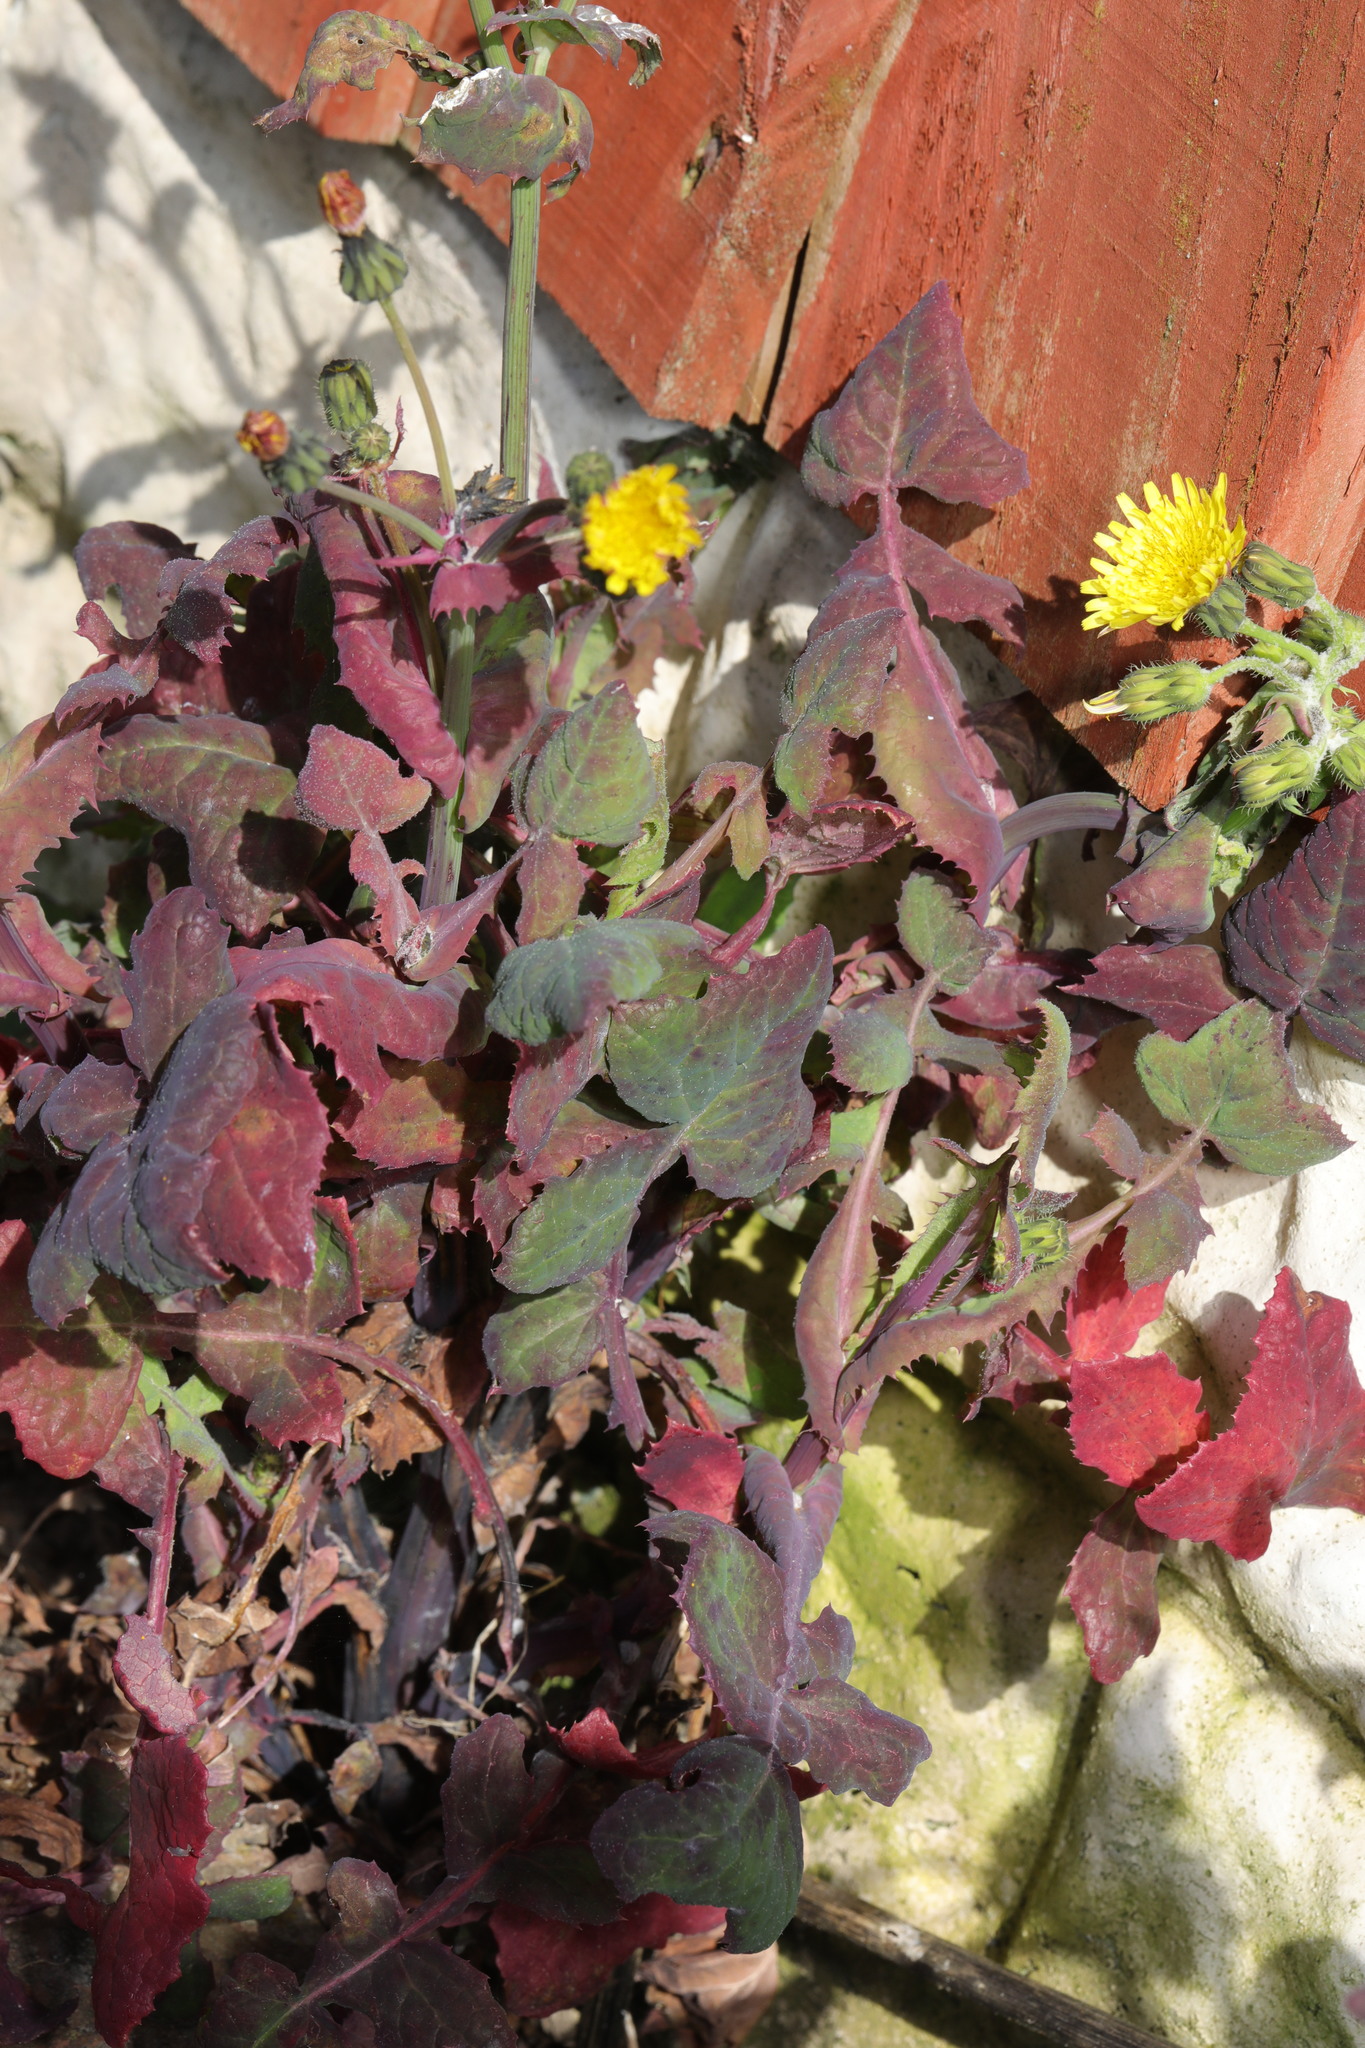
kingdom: Plantae
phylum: Tracheophyta
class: Magnoliopsida
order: Asterales
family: Asteraceae
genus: Sonchus
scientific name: Sonchus oleraceus
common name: Common sowthistle
